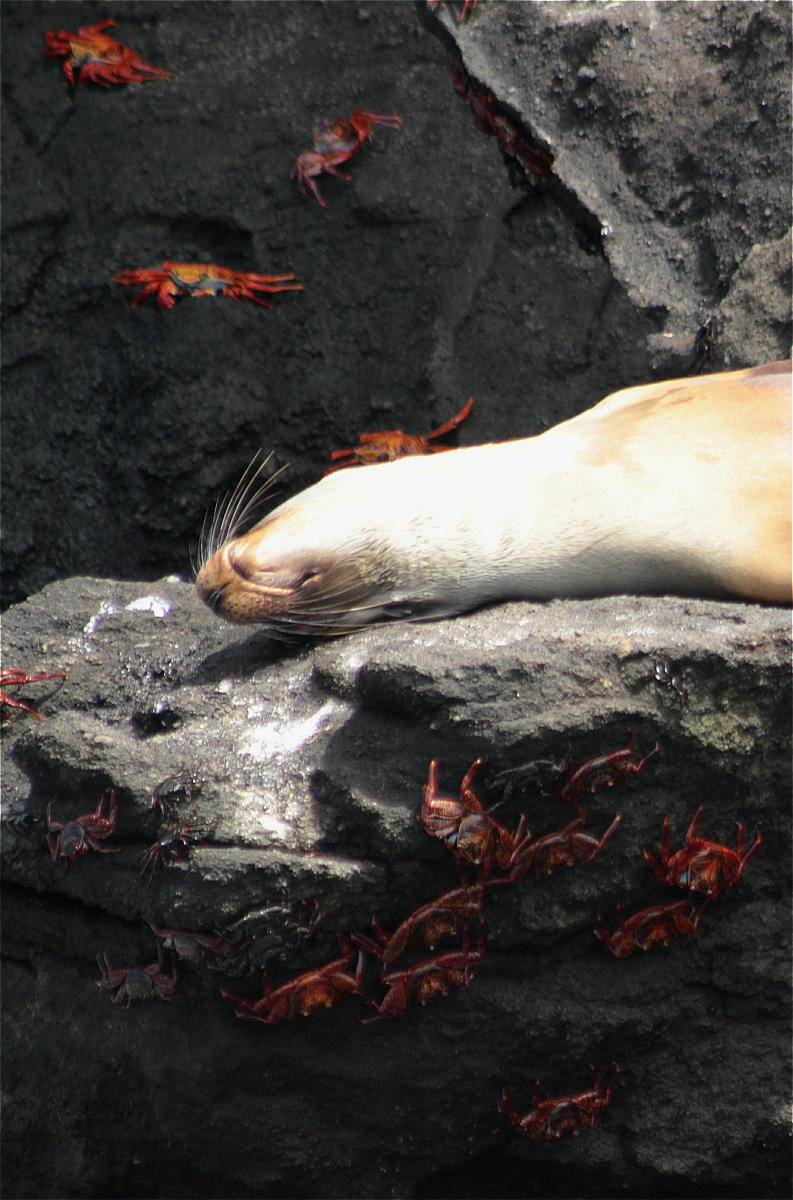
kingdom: Animalia
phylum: Arthropoda
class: Malacostraca
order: Decapoda
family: Grapsidae
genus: Grapsus
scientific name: Grapsus grapsus
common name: Sally lightfoot
